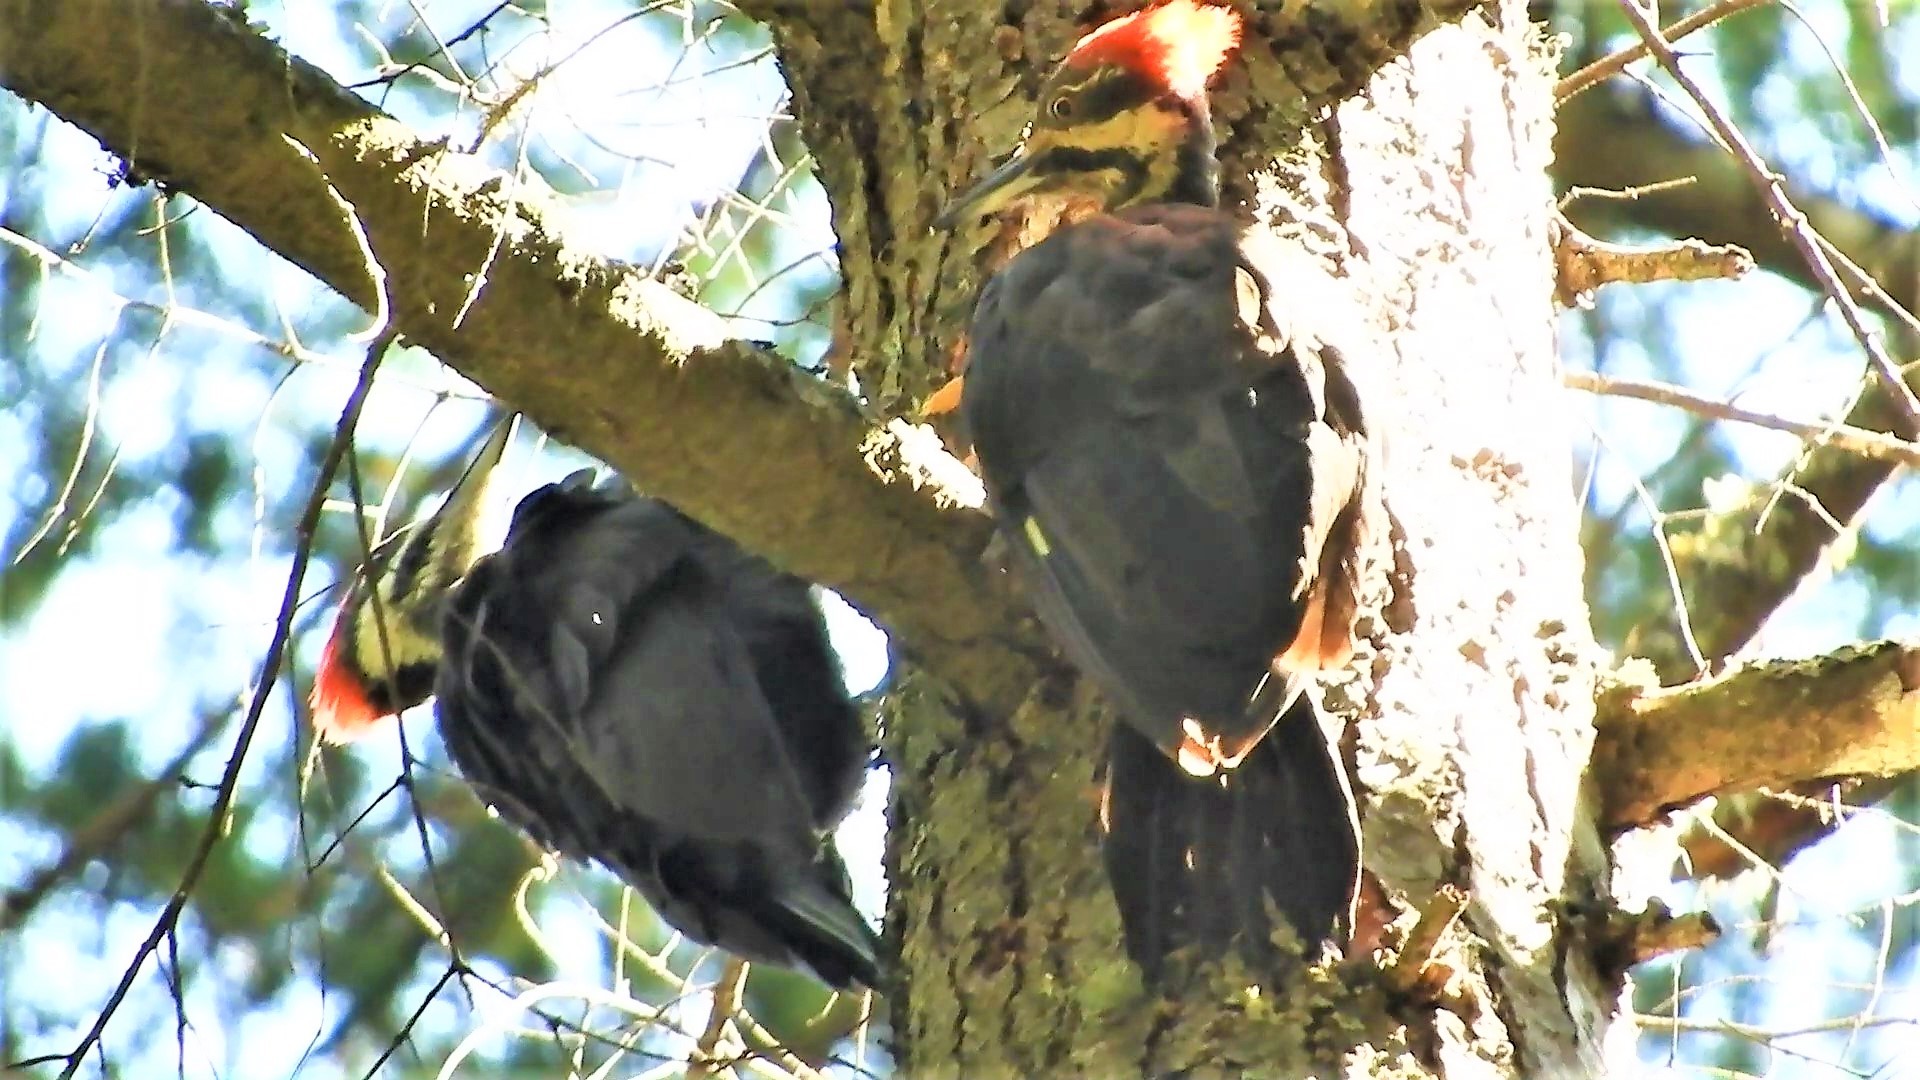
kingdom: Animalia
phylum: Chordata
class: Aves
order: Piciformes
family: Picidae
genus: Dryocopus
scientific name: Dryocopus pileatus
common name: Pileated woodpecker
